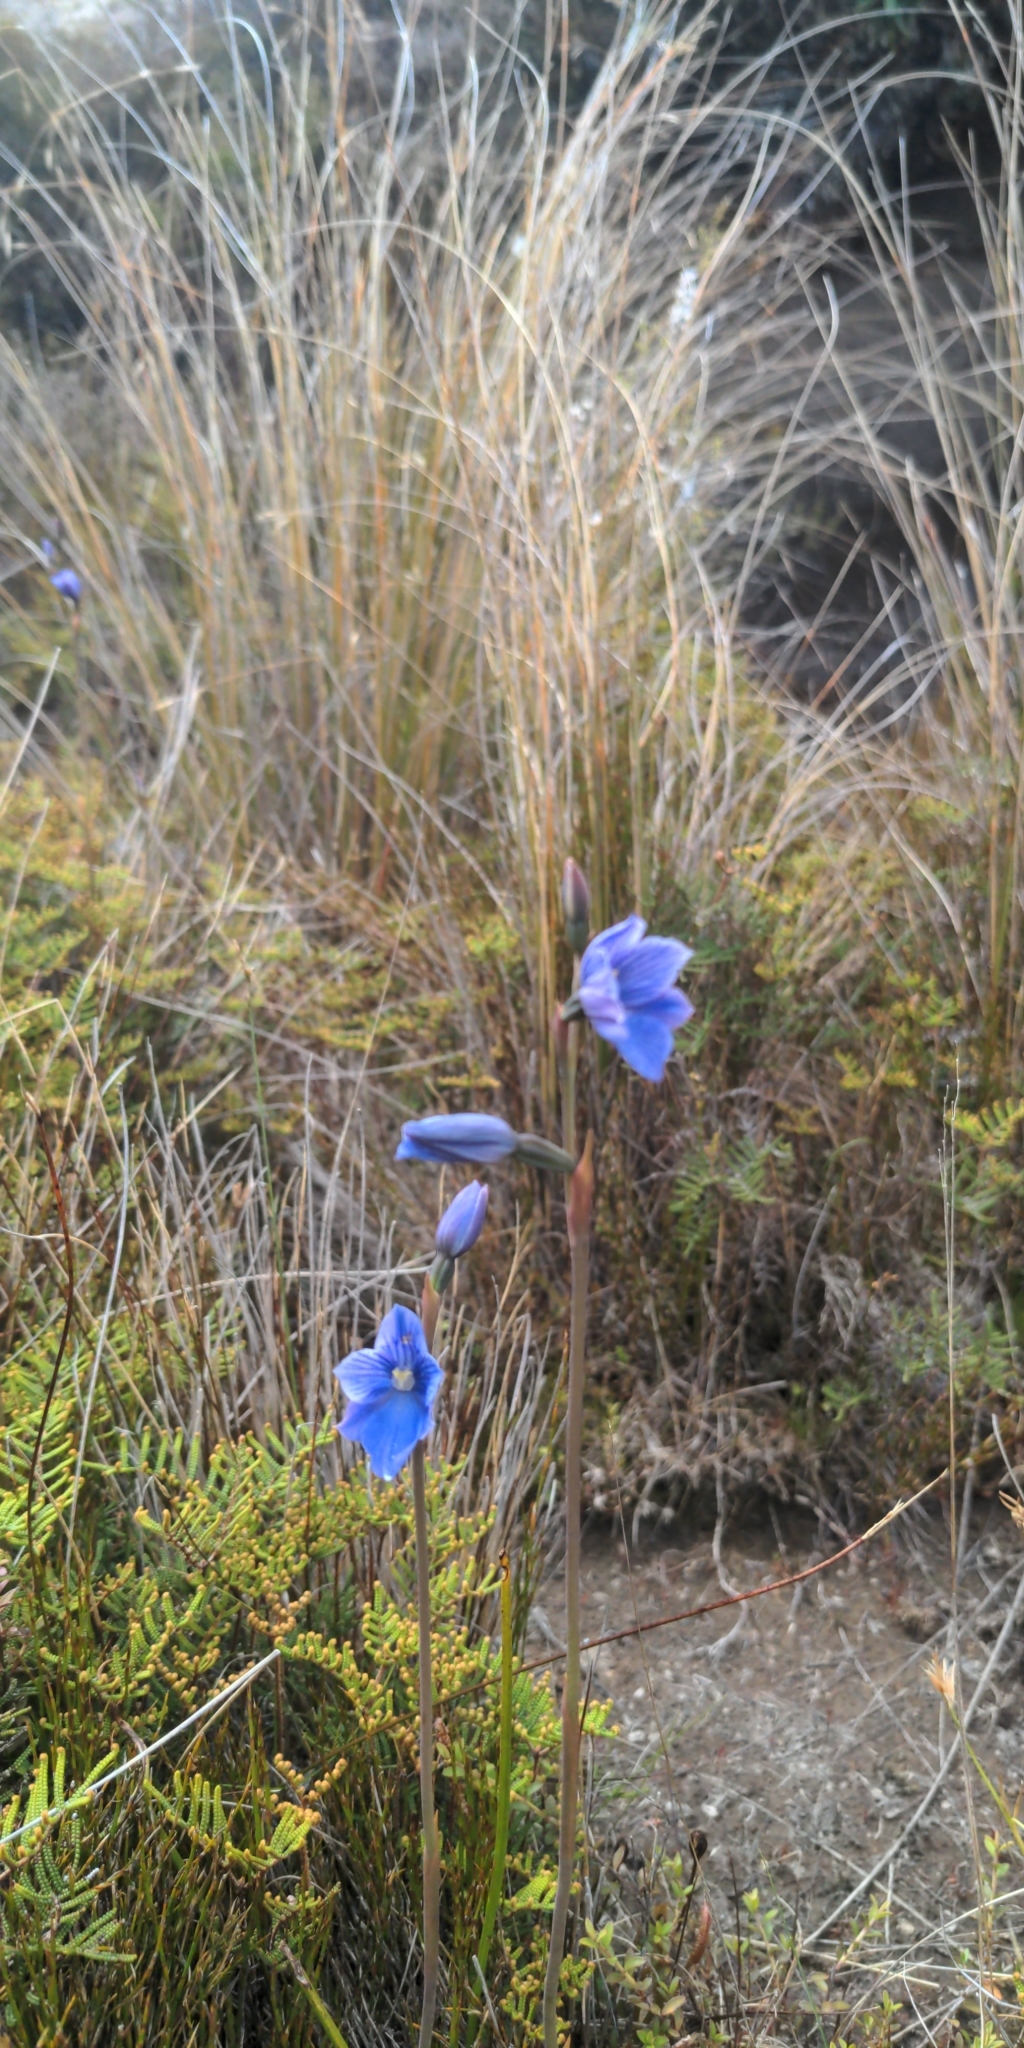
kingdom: Plantae
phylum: Tracheophyta
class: Liliopsida
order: Asparagales
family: Orchidaceae
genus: Thelymitra
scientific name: Thelymitra cyanea
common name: Blue sun-orchid
